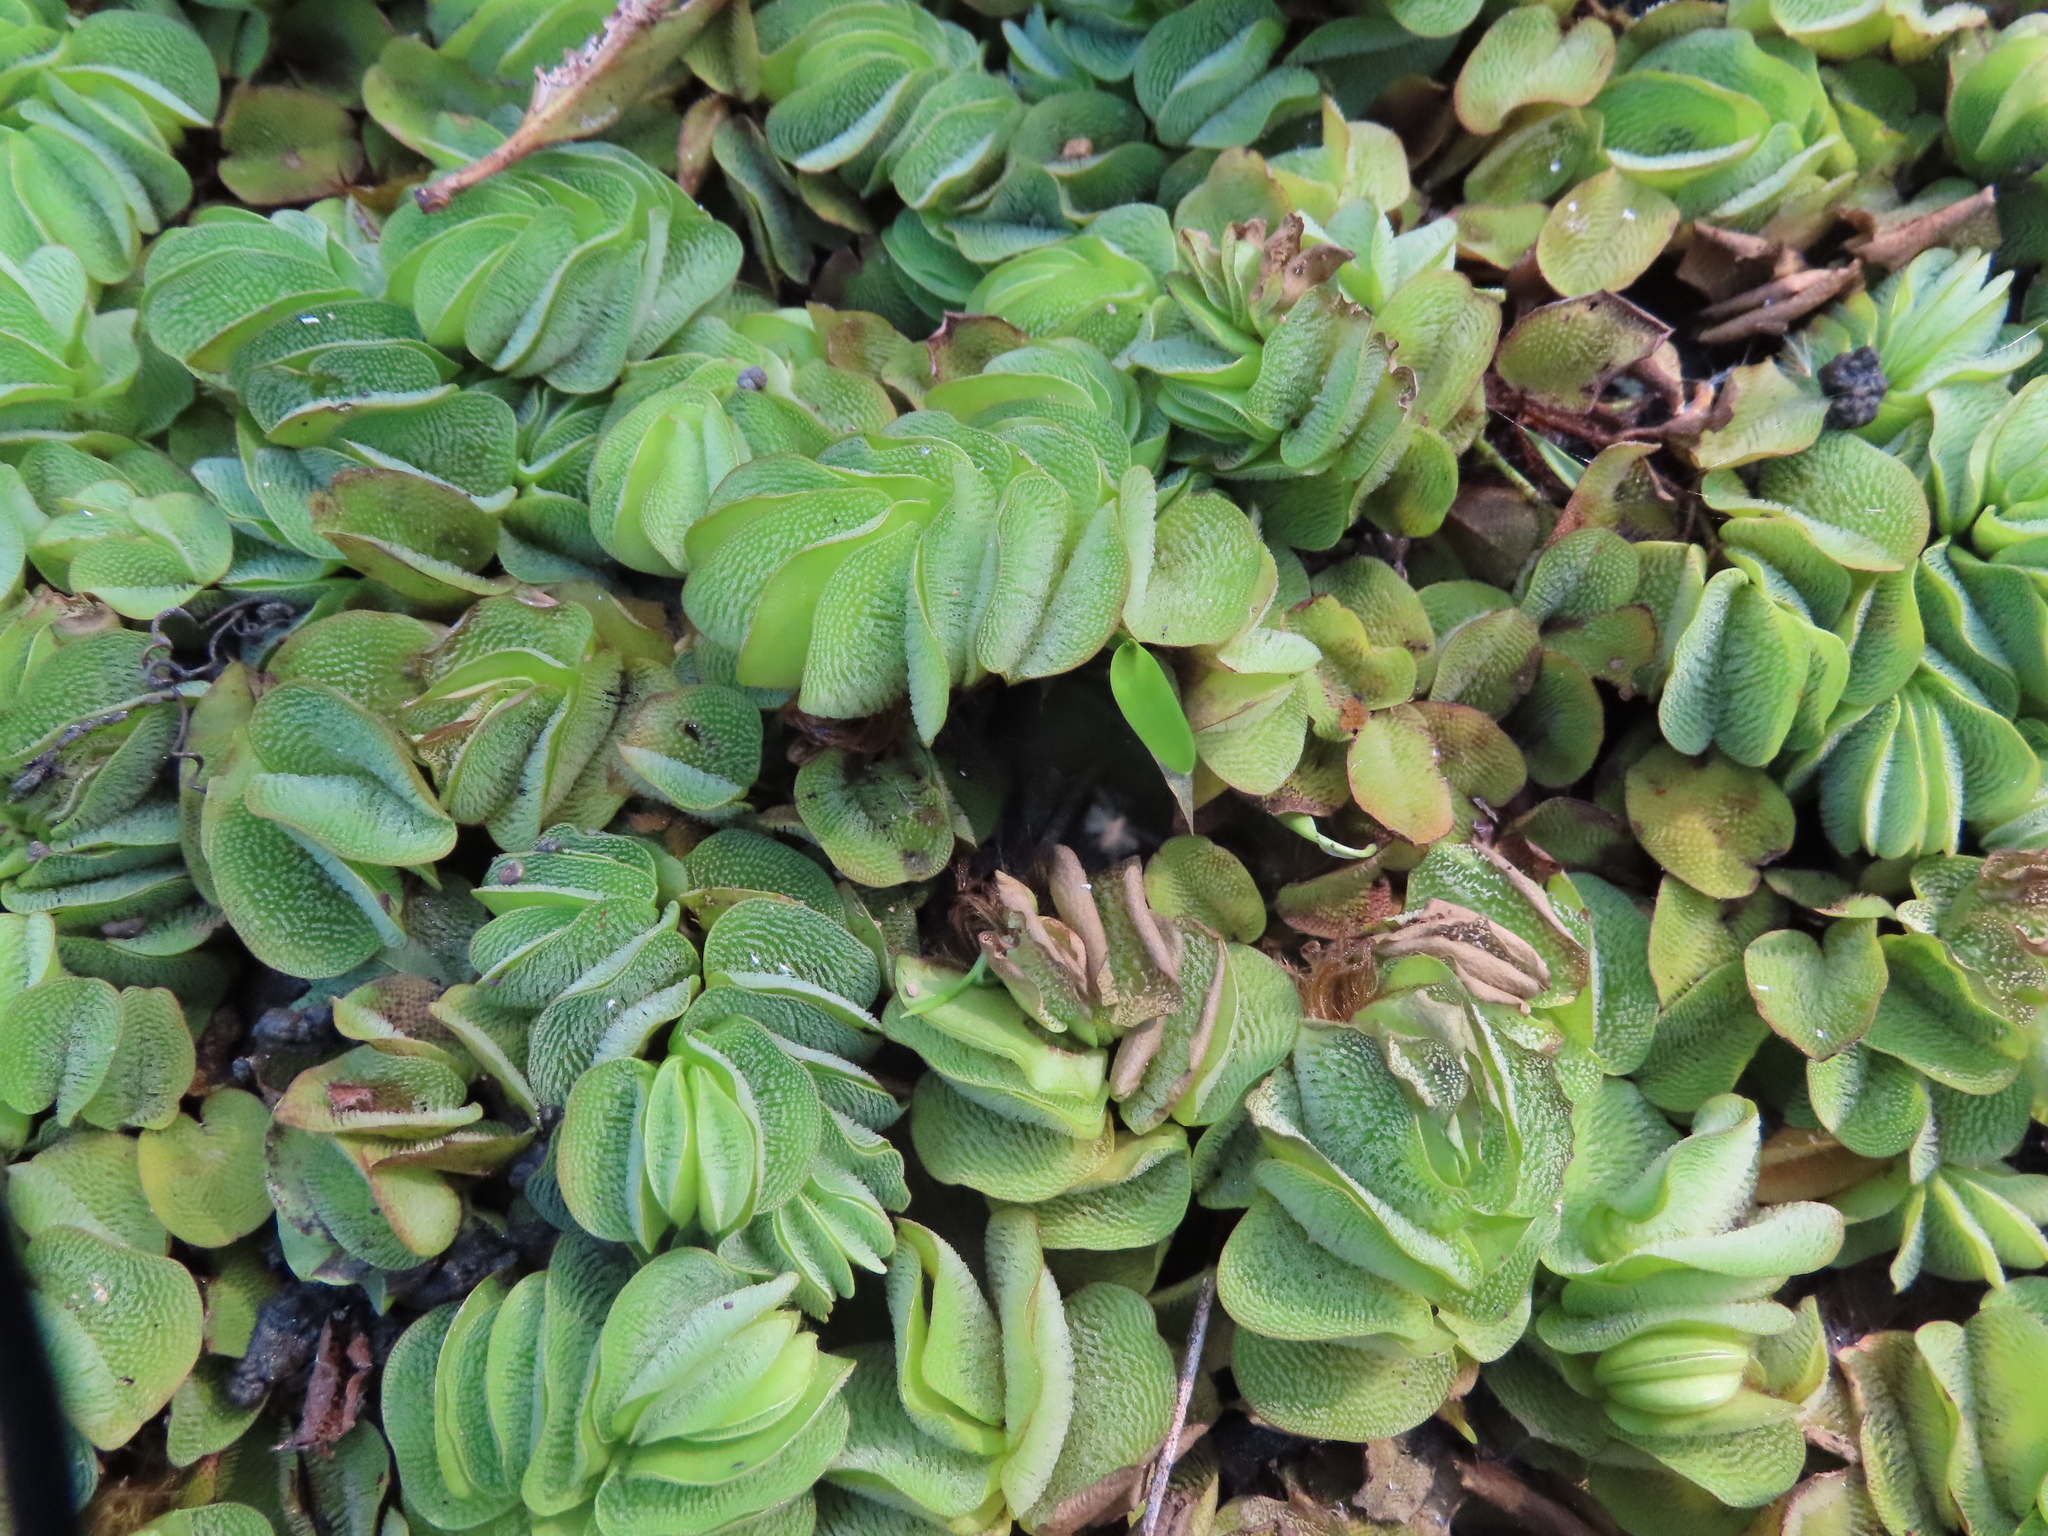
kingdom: Plantae
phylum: Tracheophyta
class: Polypodiopsida
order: Salviniales
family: Salviniaceae
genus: Salvinia
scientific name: Salvinia molesta
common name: Kariba weed
